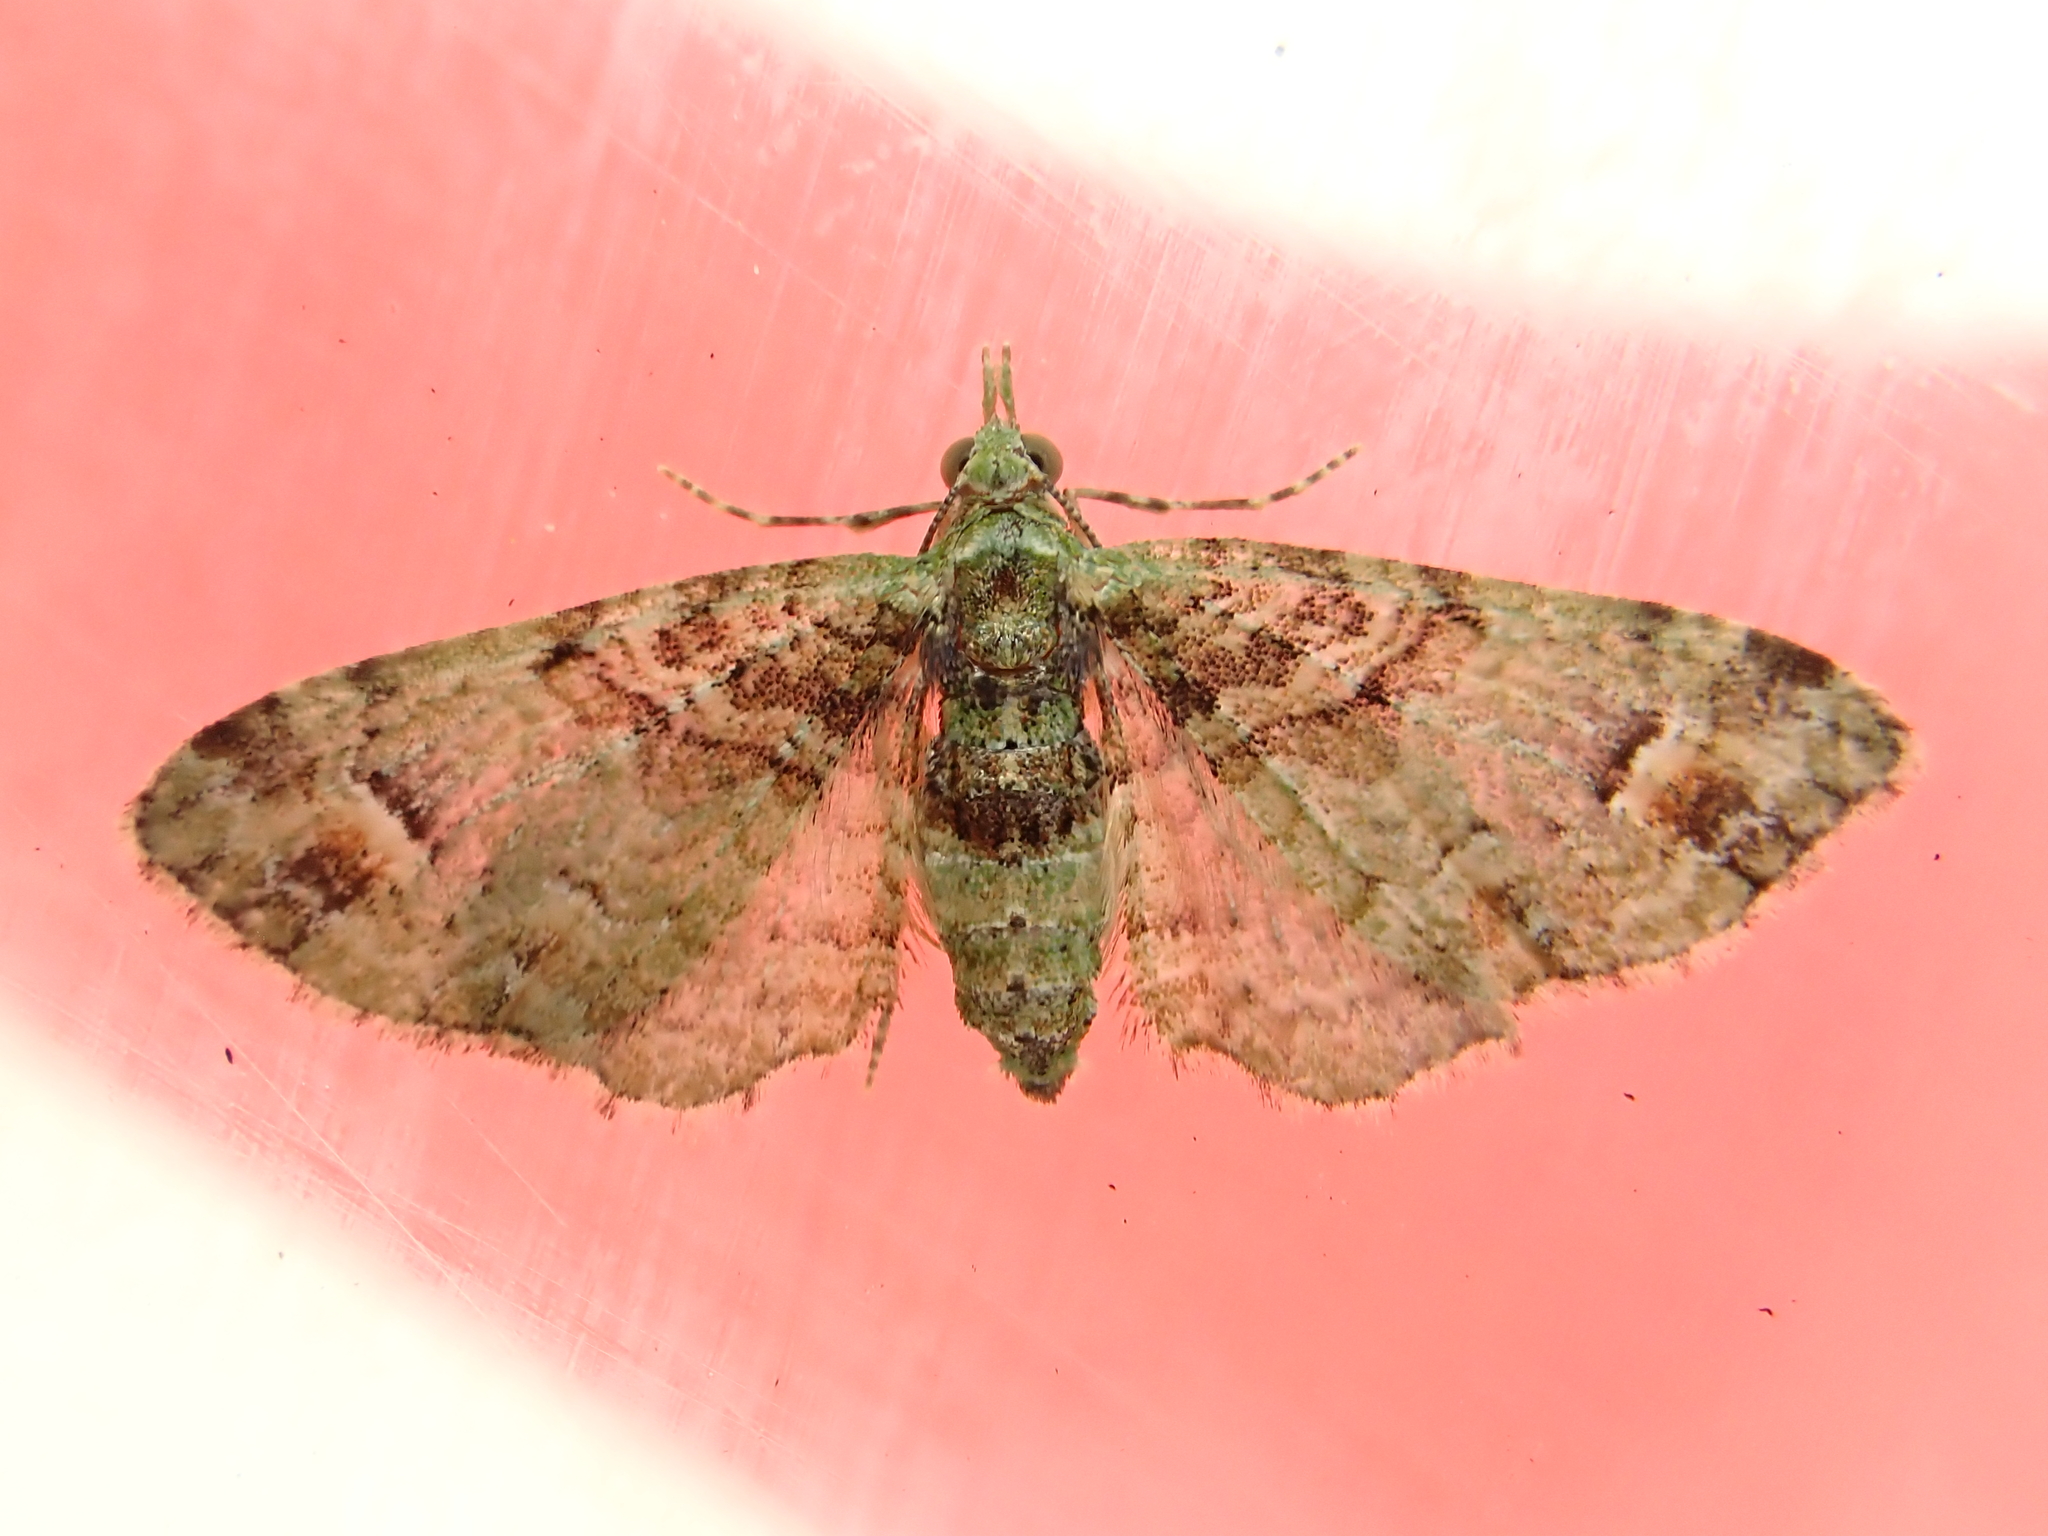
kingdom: Animalia
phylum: Arthropoda
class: Insecta
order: Lepidoptera
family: Geometridae
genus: Idaea
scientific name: Idaea mutanda
